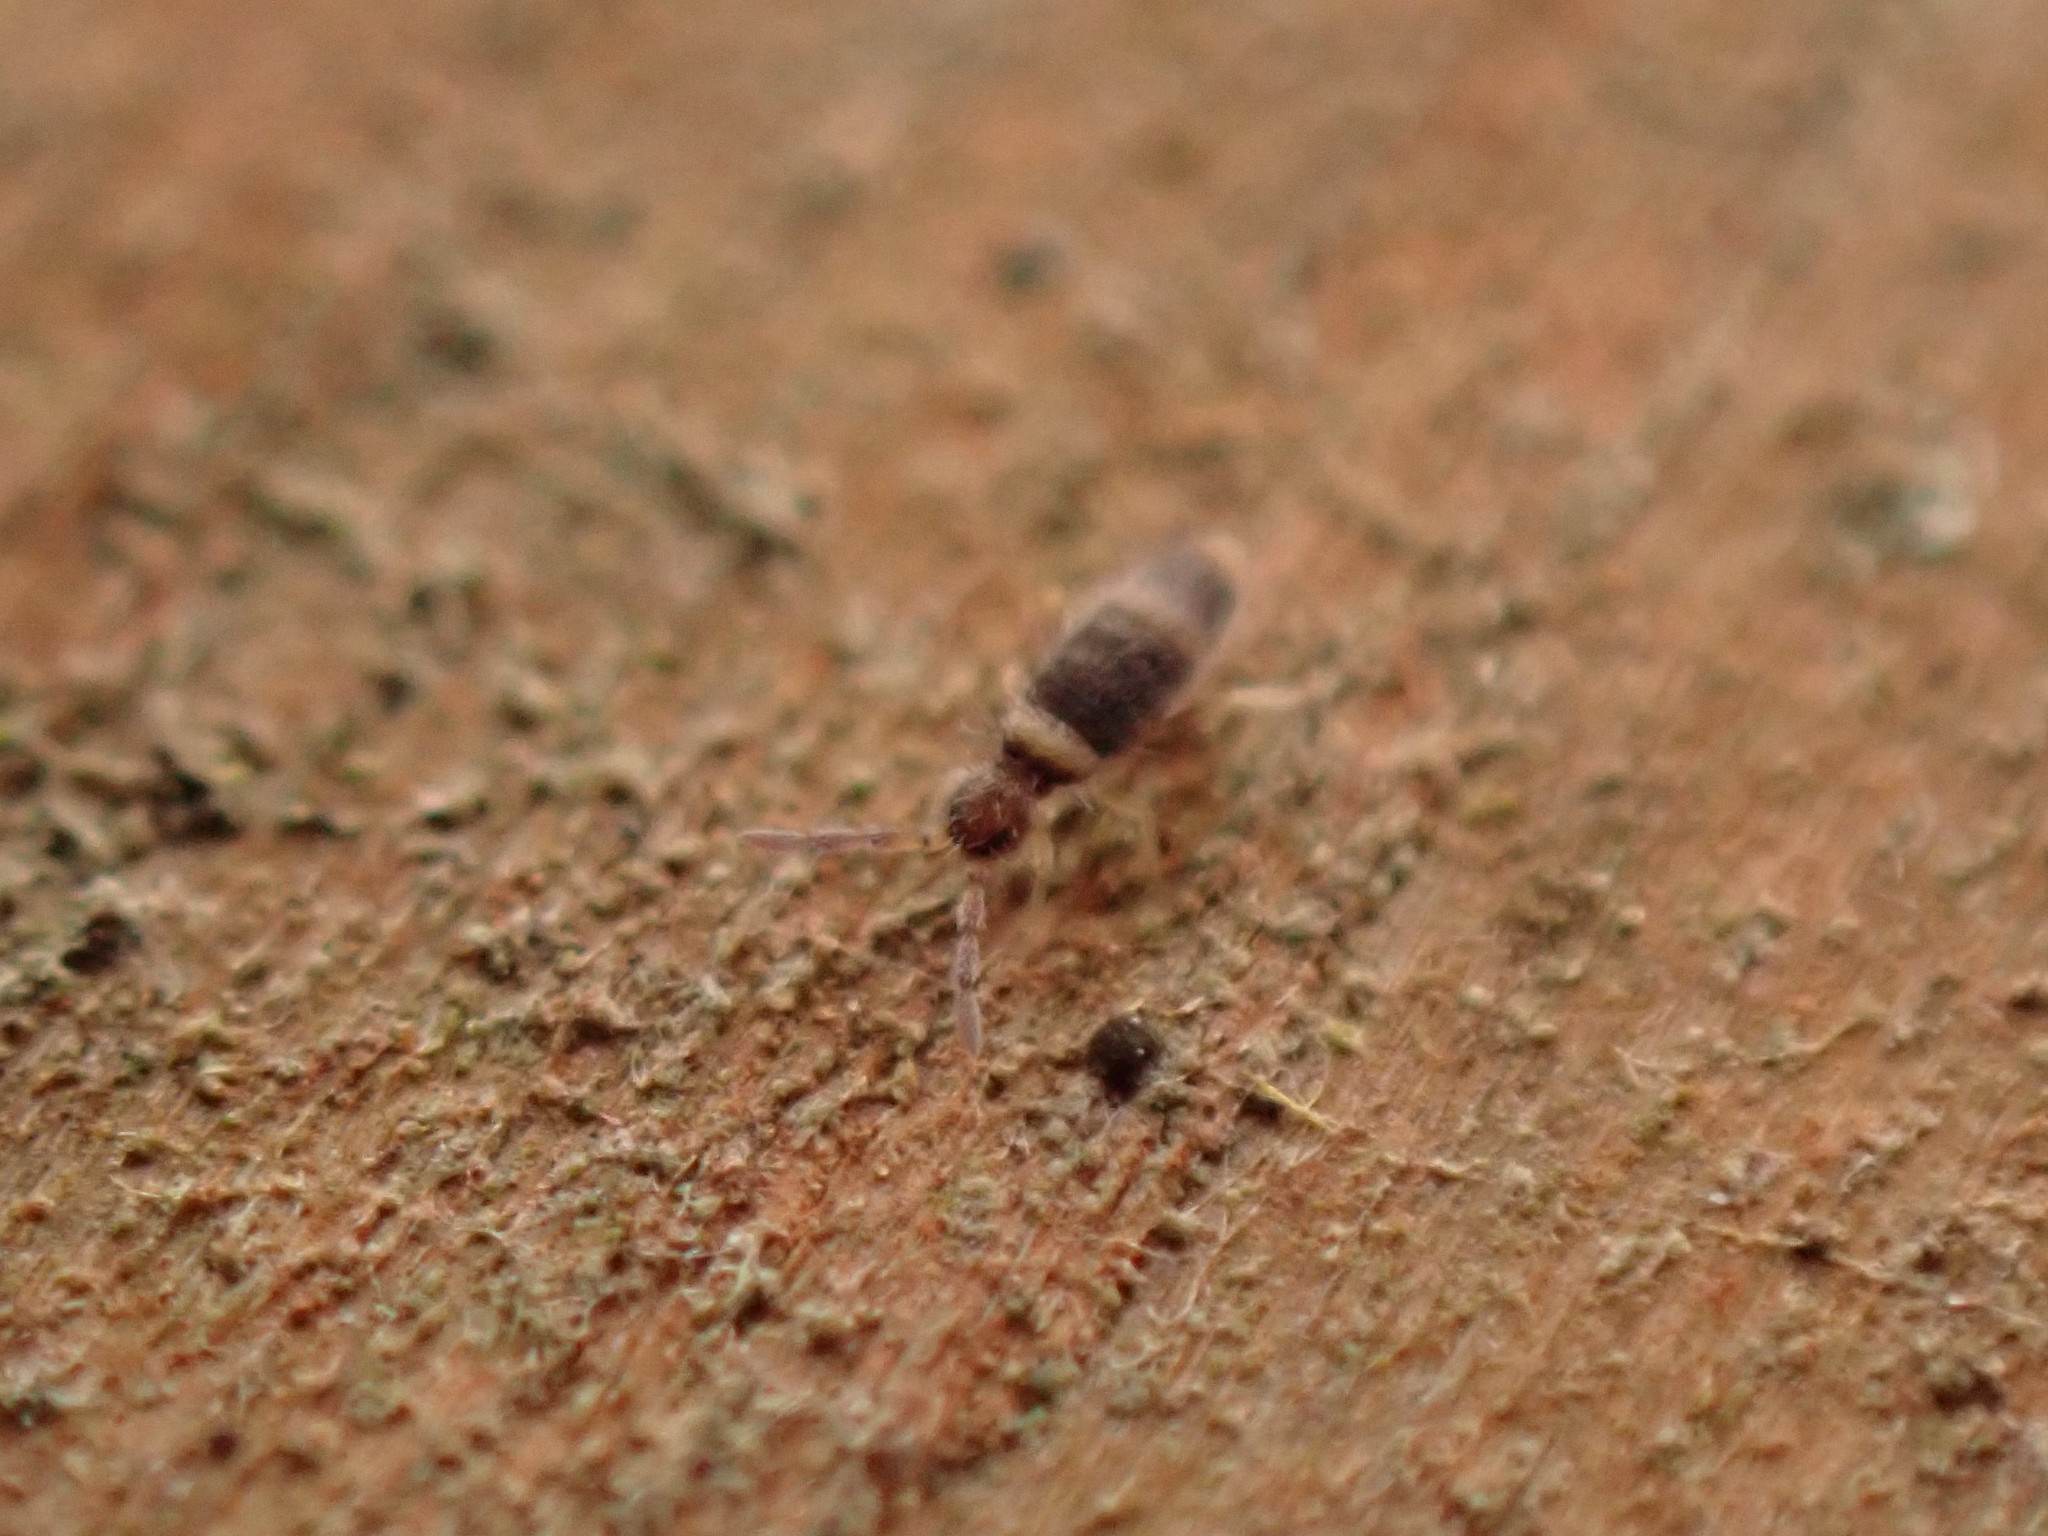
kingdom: Animalia
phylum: Arthropoda
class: Collembola
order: Entomobryomorpha
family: Entomobryidae
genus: Entomobrya
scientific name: Entomobrya albocincta
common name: Springtail
